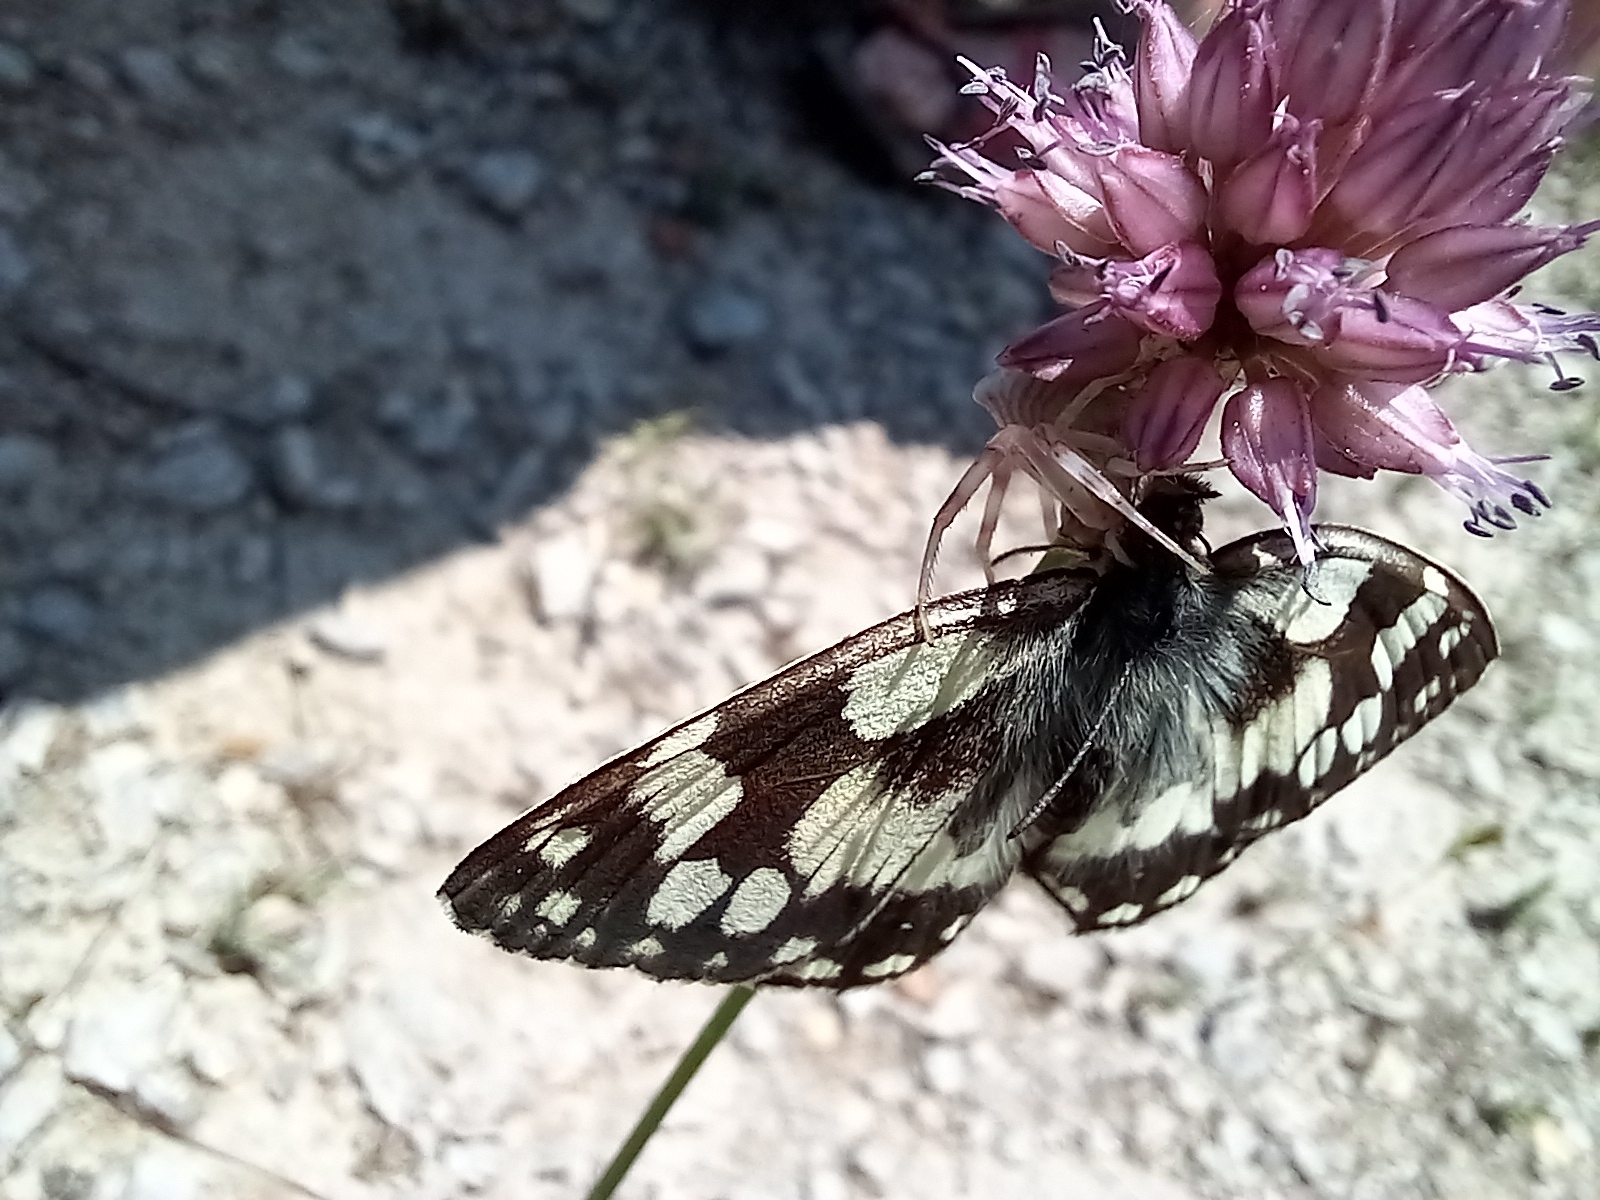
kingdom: Animalia
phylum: Arthropoda
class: Insecta
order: Lepidoptera
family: Nymphalidae
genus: Melanargia
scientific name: Melanargia galathea
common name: Marbled white
